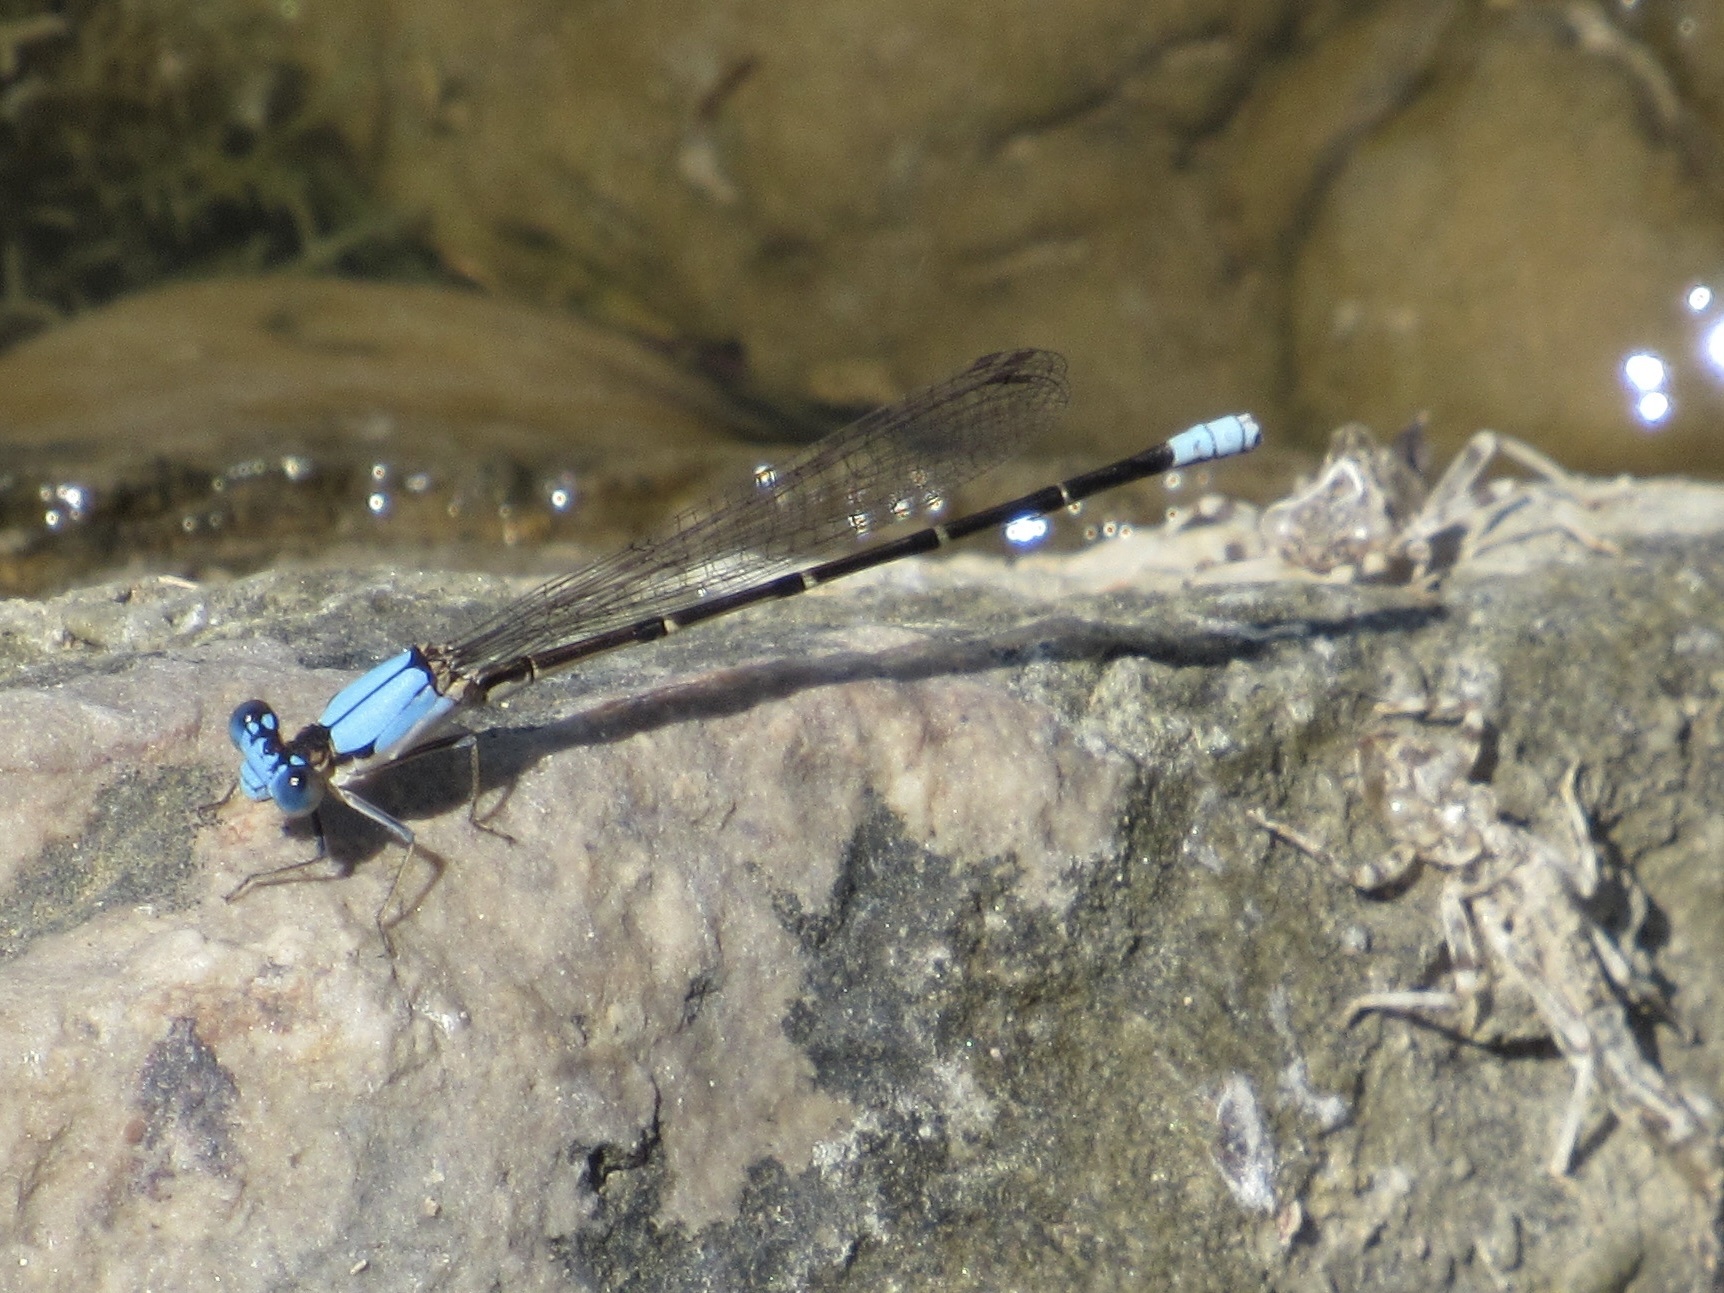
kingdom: Animalia
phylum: Arthropoda
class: Insecta
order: Odonata
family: Coenagrionidae
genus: Argia
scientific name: Argia apicalis
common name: Blue-fronted dancer
